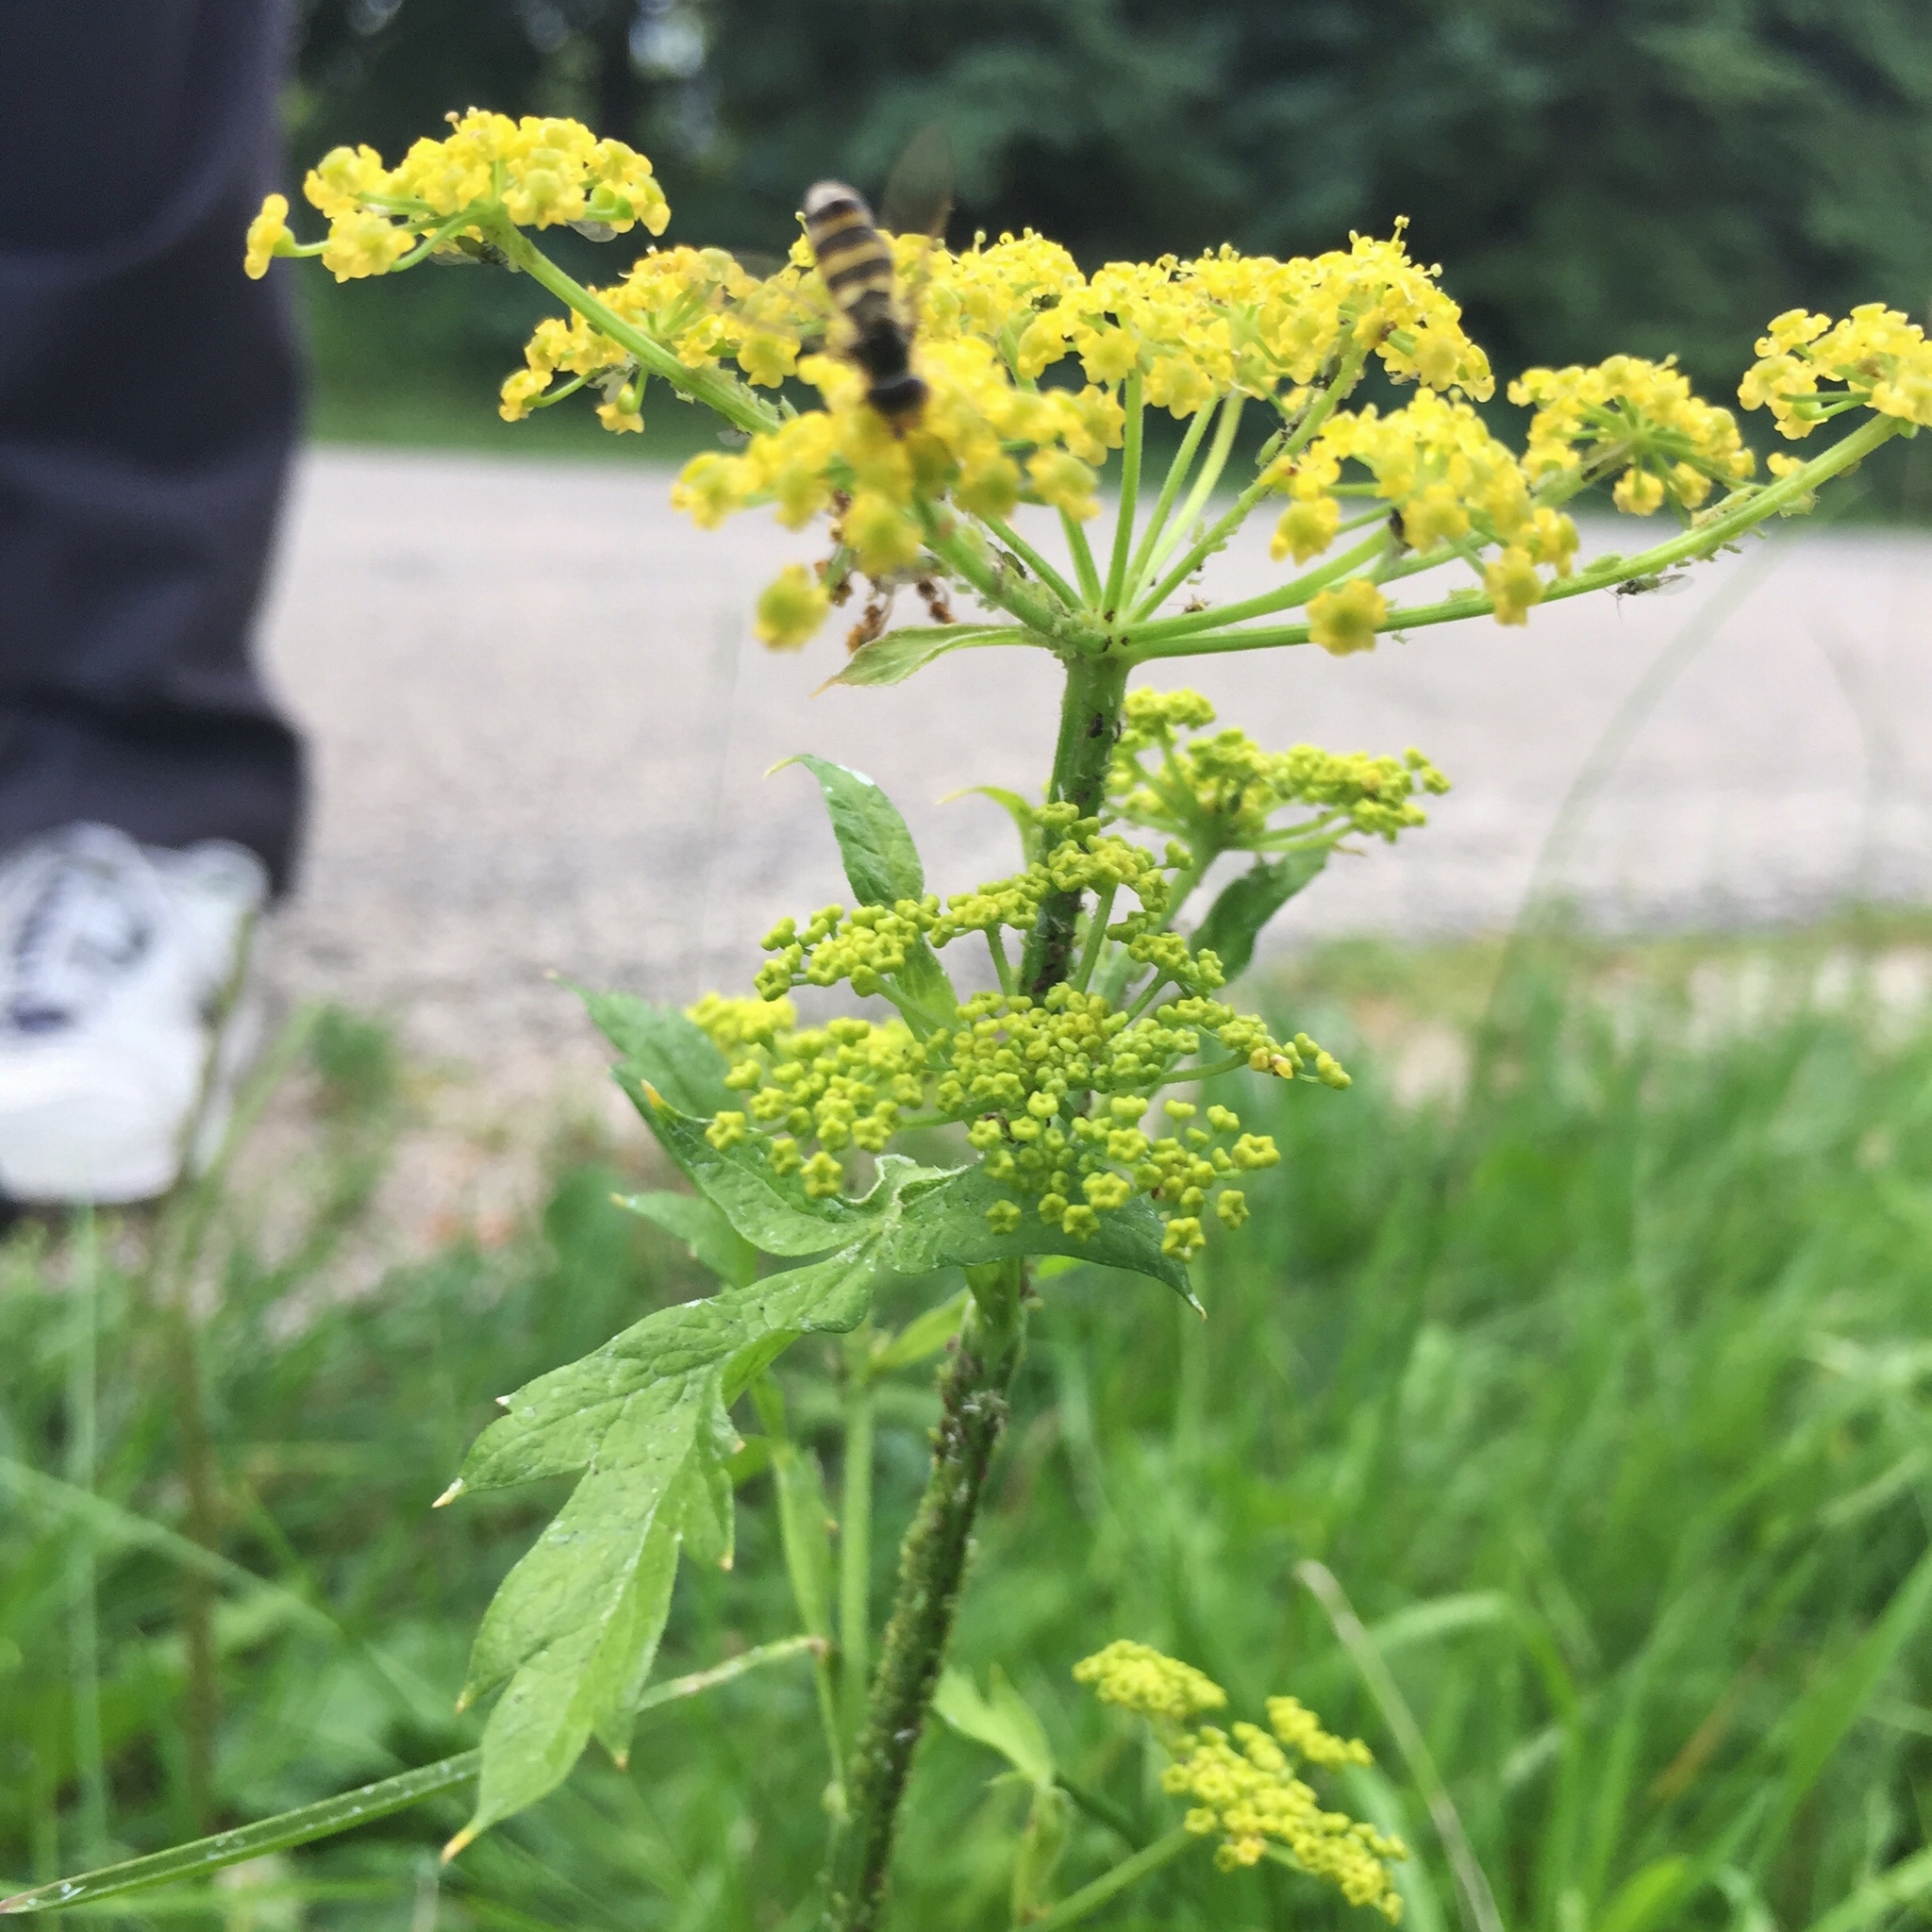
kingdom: Plantae
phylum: Tracheophyta
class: Magnoliopsida
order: Apiales
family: Apiaceae
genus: Pastinaca
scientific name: Pastinaca sativa
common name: Wild parsnip
